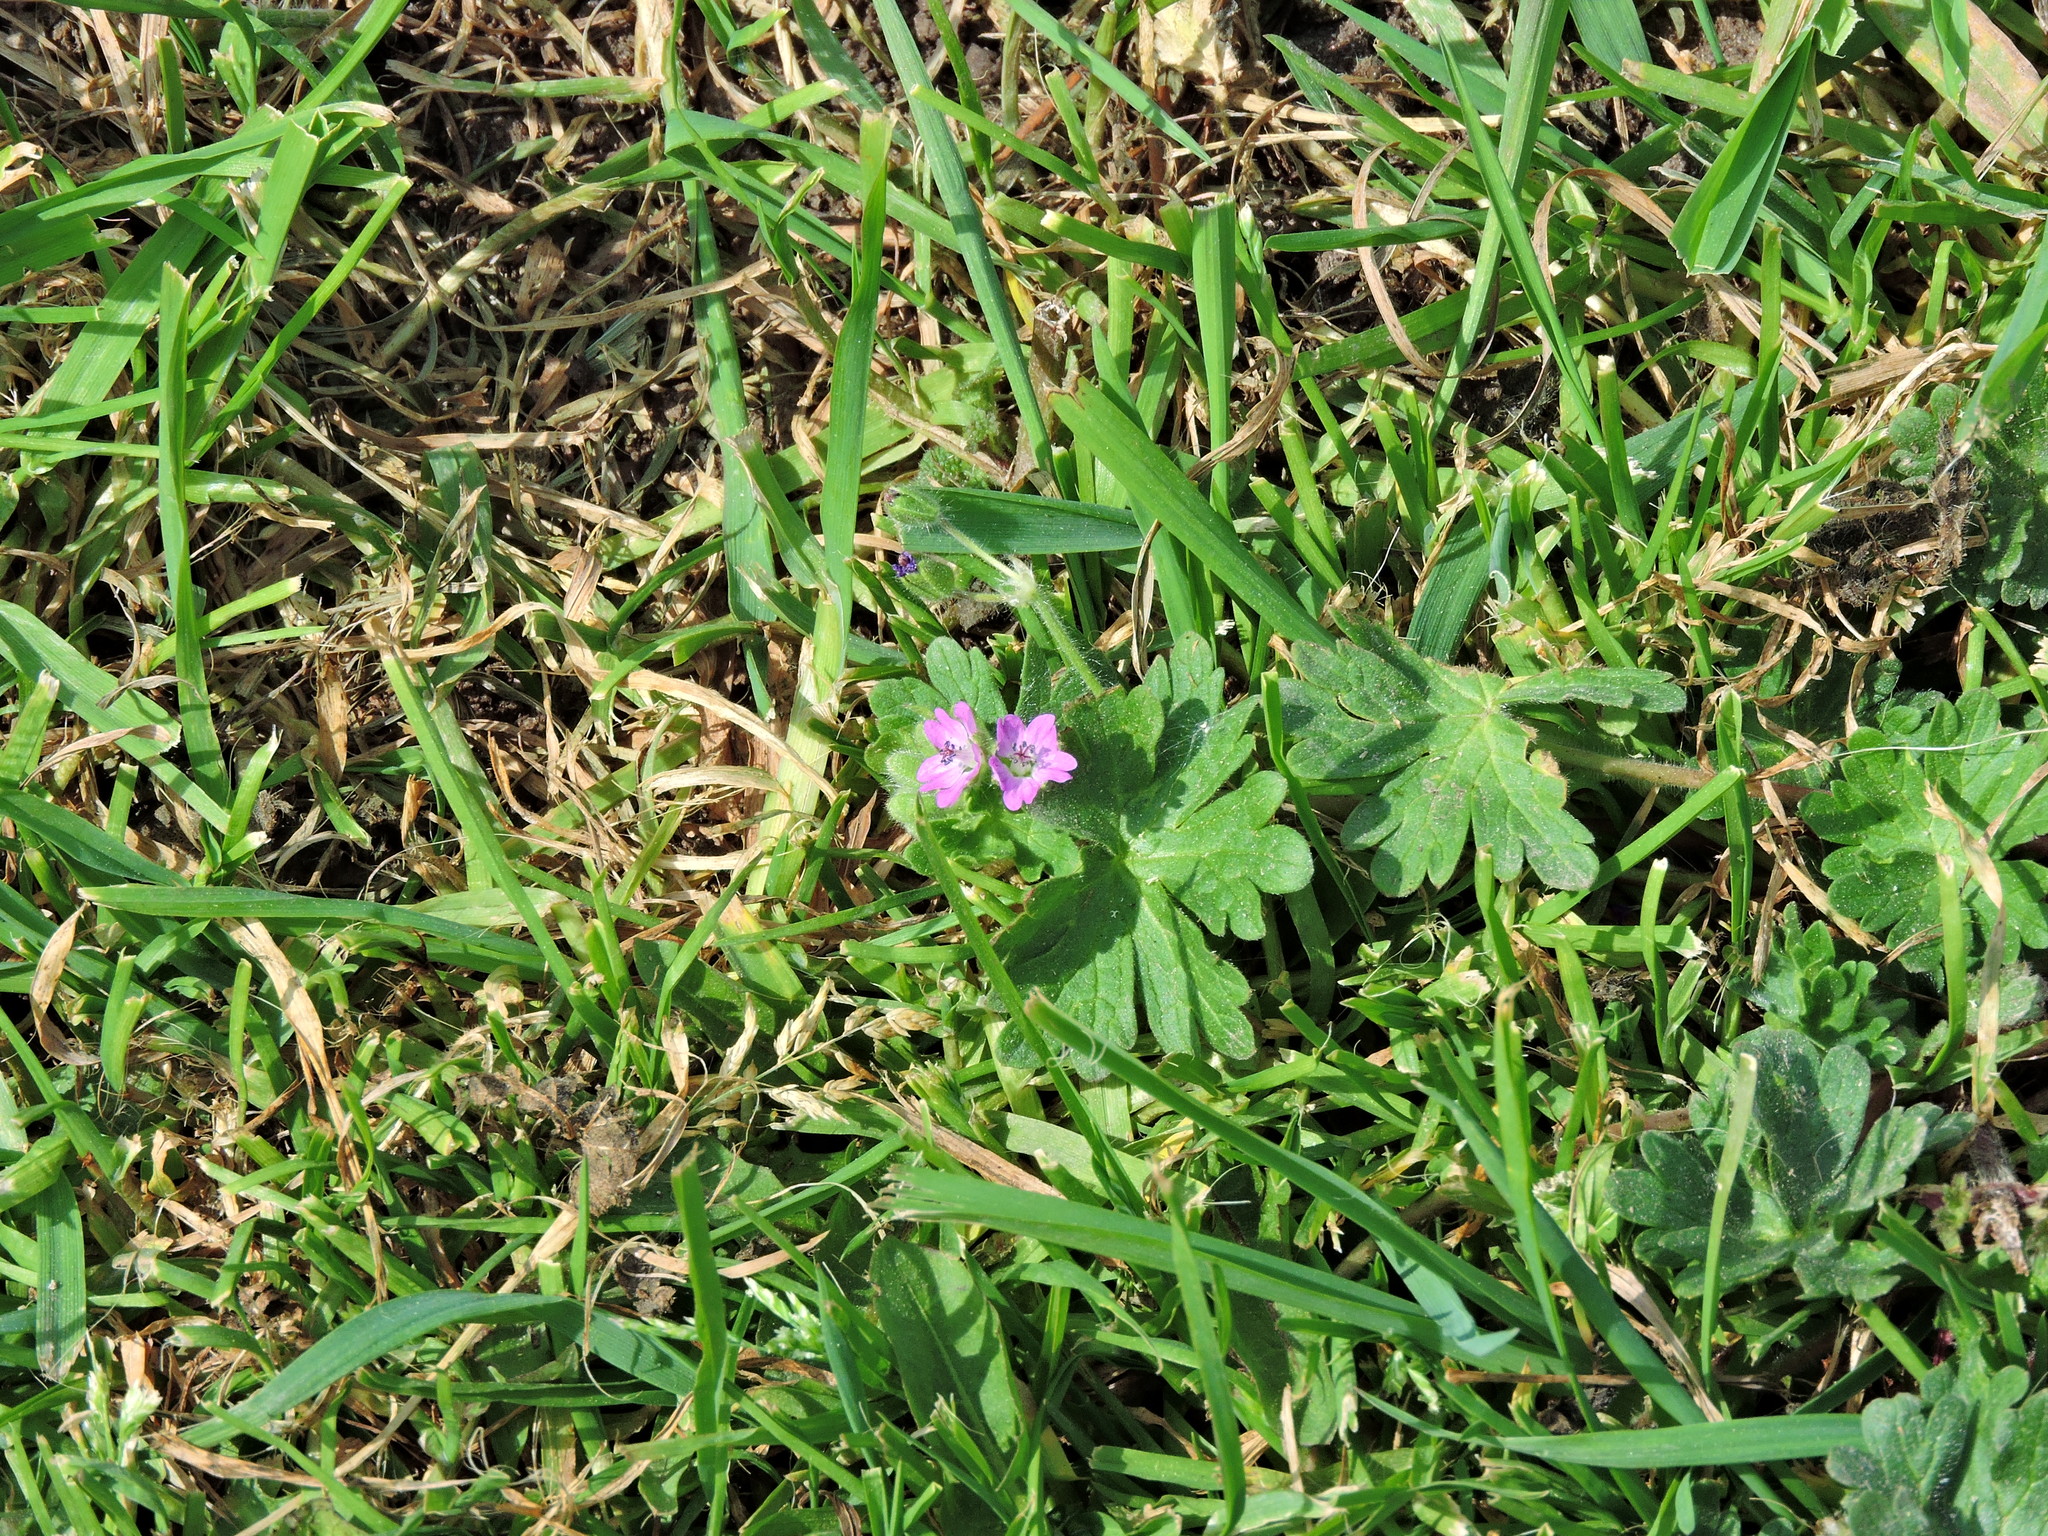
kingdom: Plantae
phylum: Tracheophyta
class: Magnoliopsida
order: Geraniales
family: Geraniaceae
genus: Geranium
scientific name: Geranium molle
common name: Dove's-foot crane's-bill
